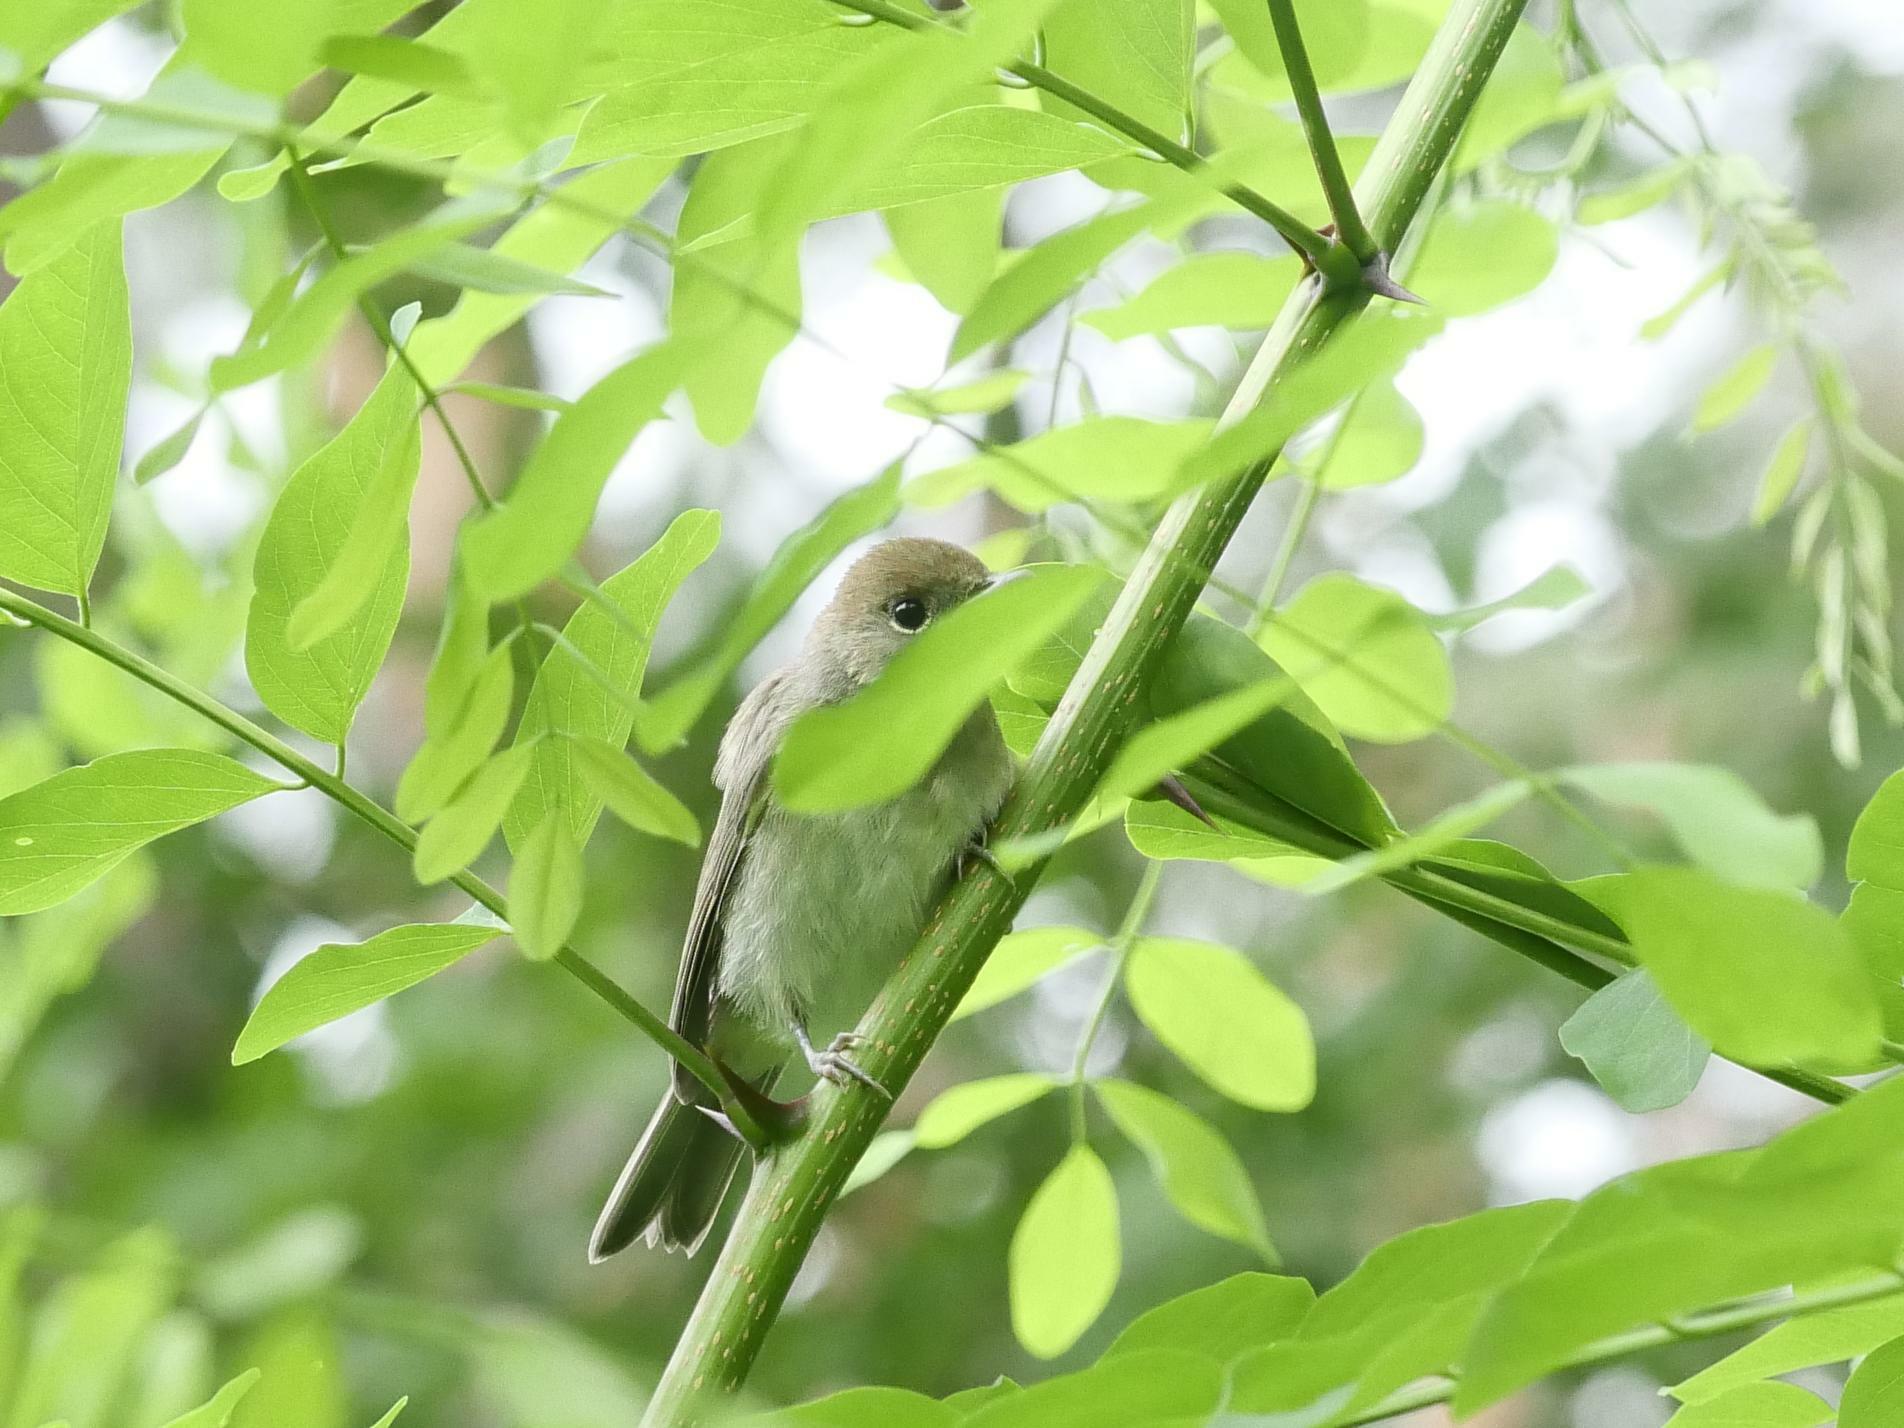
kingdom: Animalia
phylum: Chordata
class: Aves
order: Passeriformes
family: Sylviidae
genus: Sylvia
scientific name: Sylvia atricapilla
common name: Eurasian blackcap
